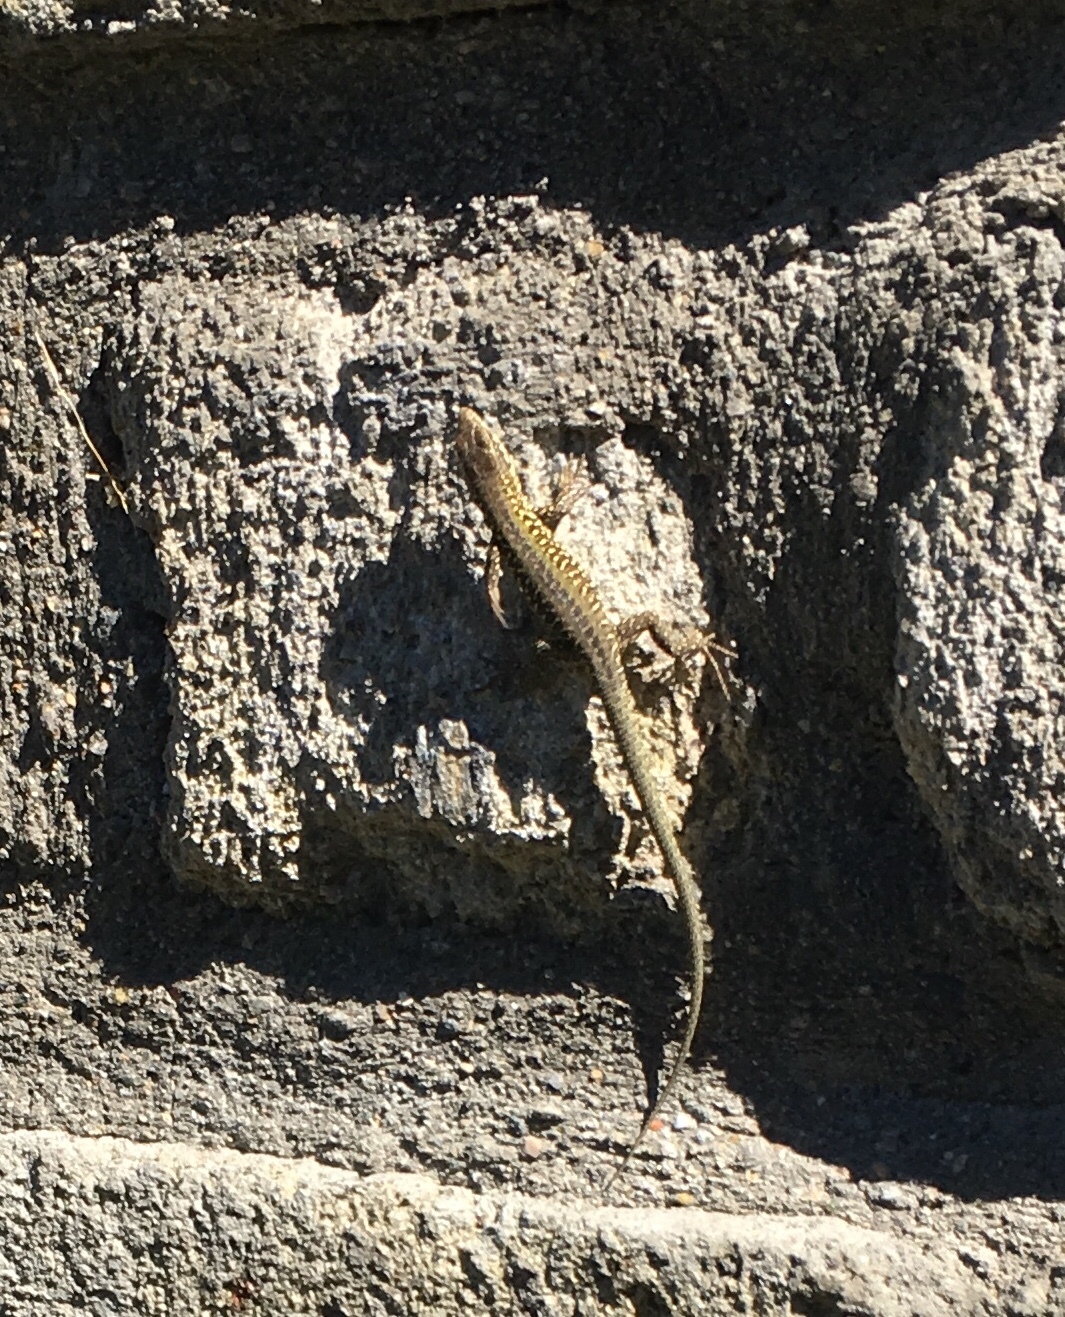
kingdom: Animalia
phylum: Chordata
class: Squamata
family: Lacertidae
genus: Podarcis
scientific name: Podarcis siculus
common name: Italian wall lizard
